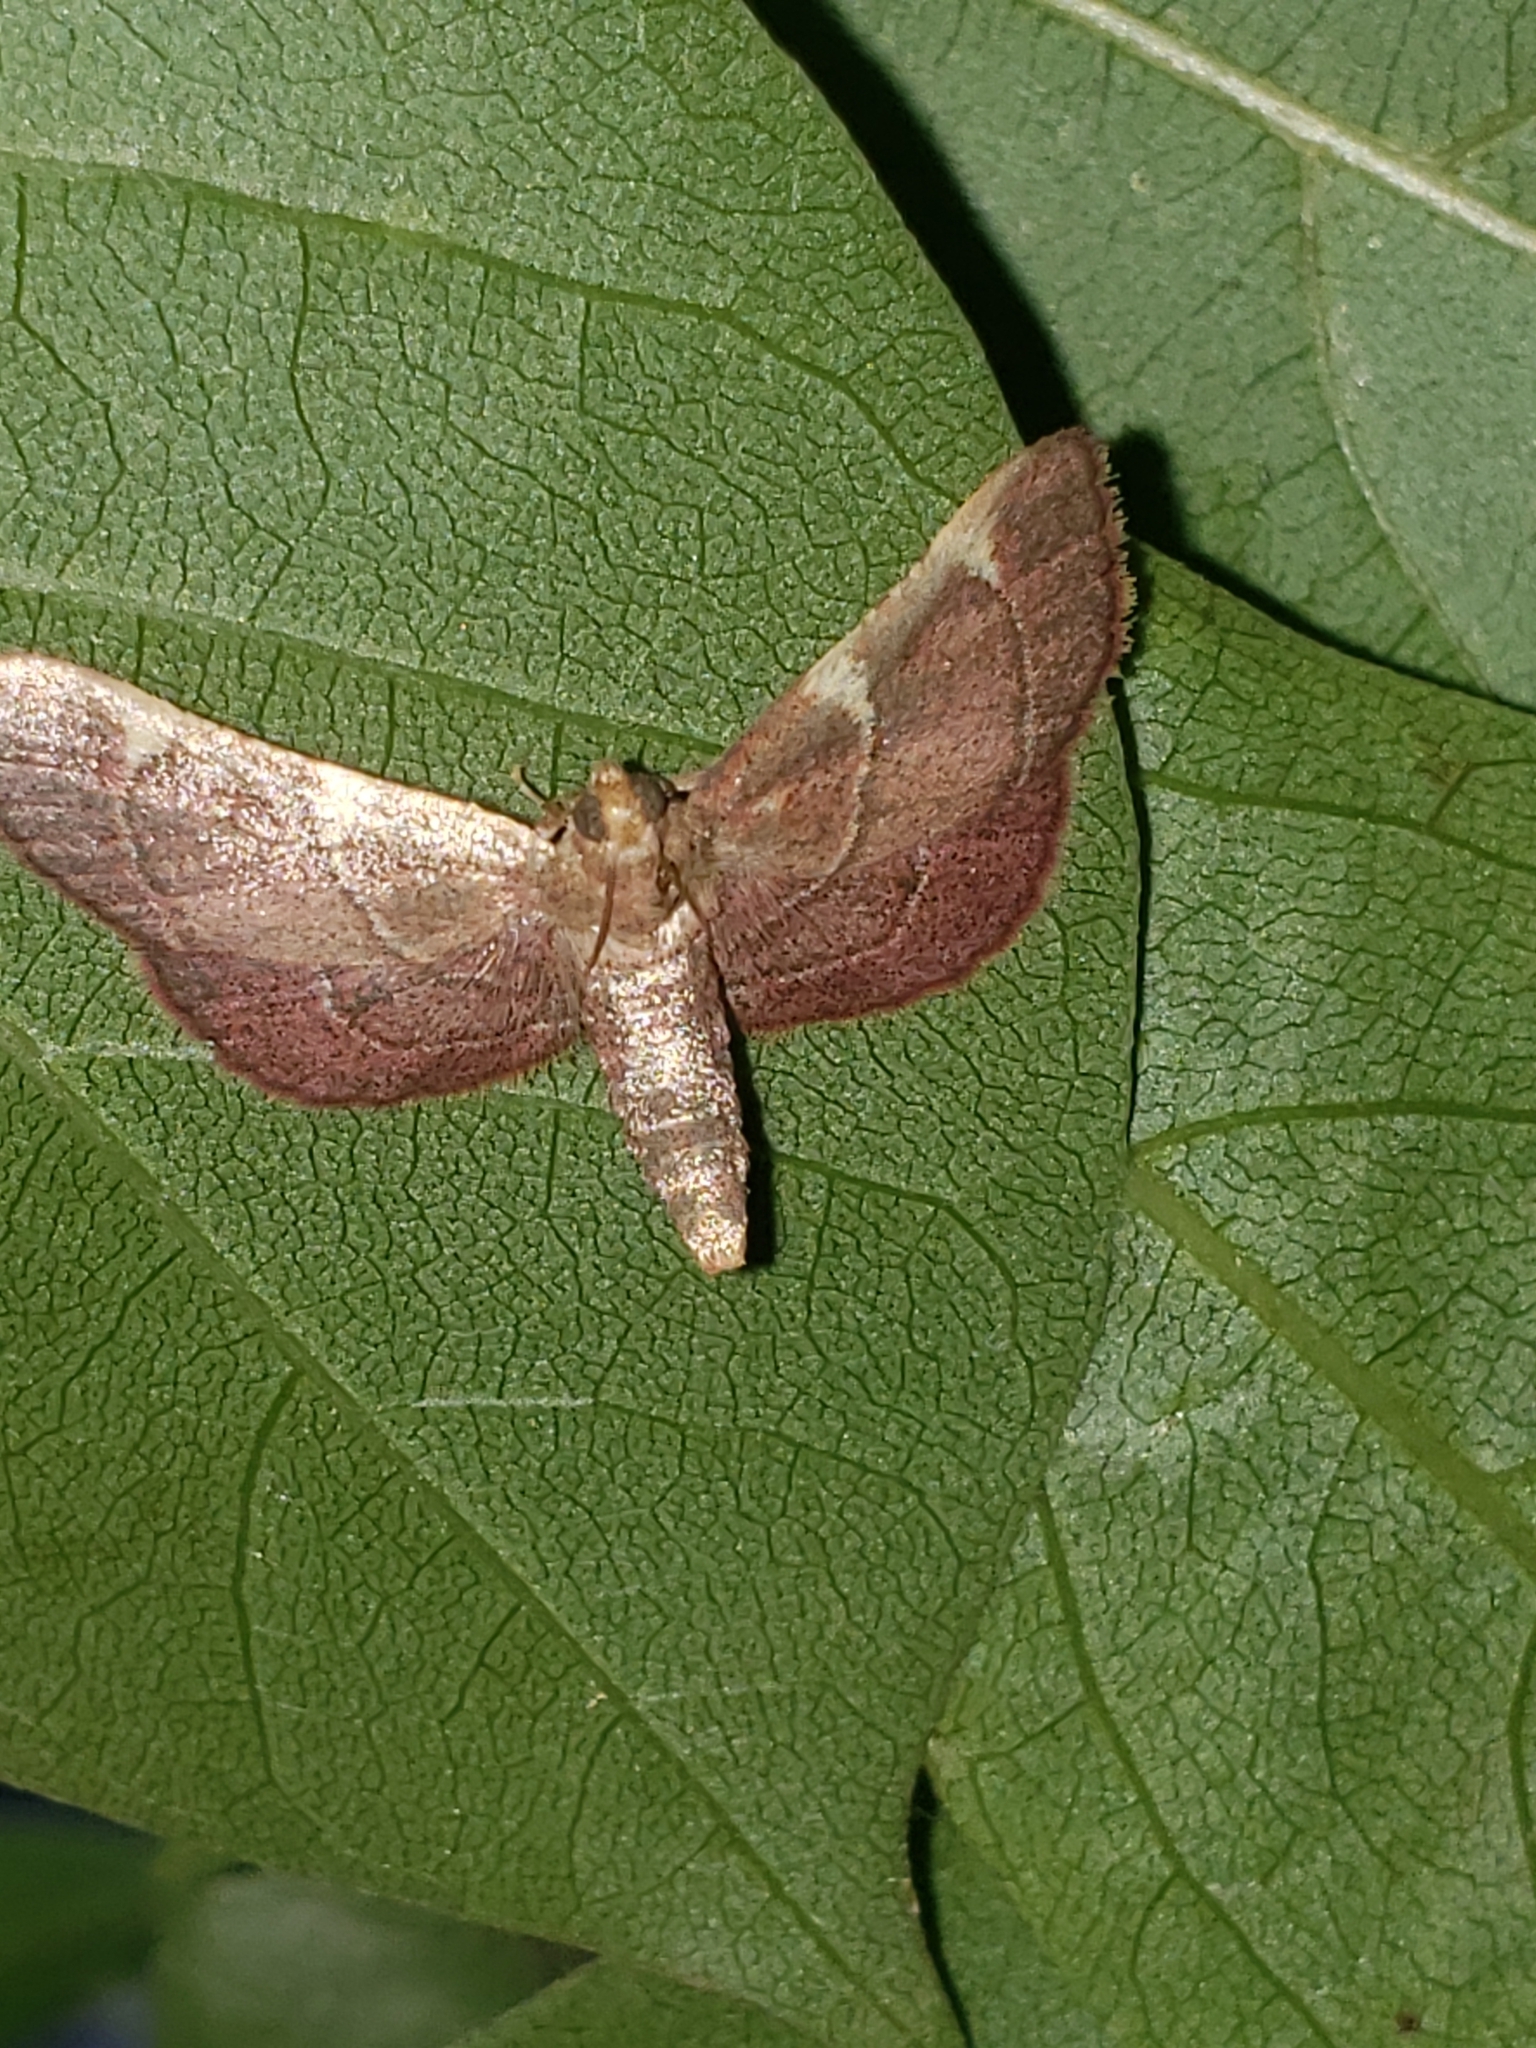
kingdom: Animalia
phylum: Arthropoda
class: Insecta
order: Lepidoptera
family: Pyralidae
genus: Hypsopygia
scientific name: Hypsopygia olinalis
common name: Yellow-fringed dolichomia moth
